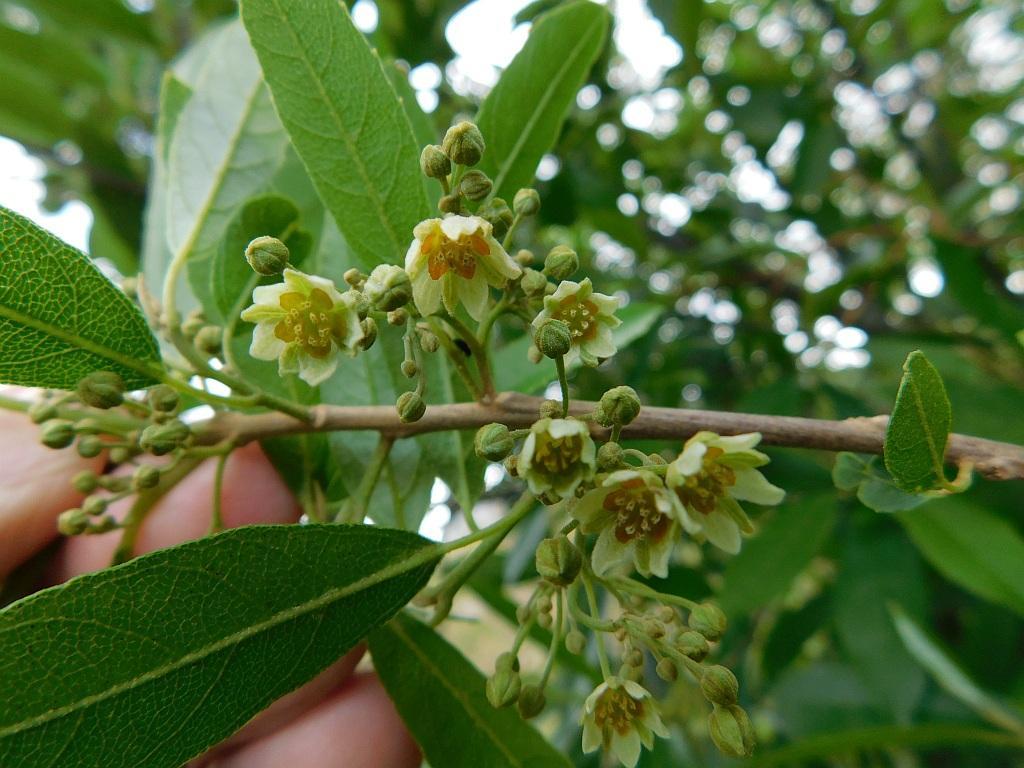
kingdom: Plantae
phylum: Tracheophyta
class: Magnoliopsida
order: Malpighiales
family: Achariaceae
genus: Kiggelaria
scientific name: Kiggelaria africana
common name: Wild peach
